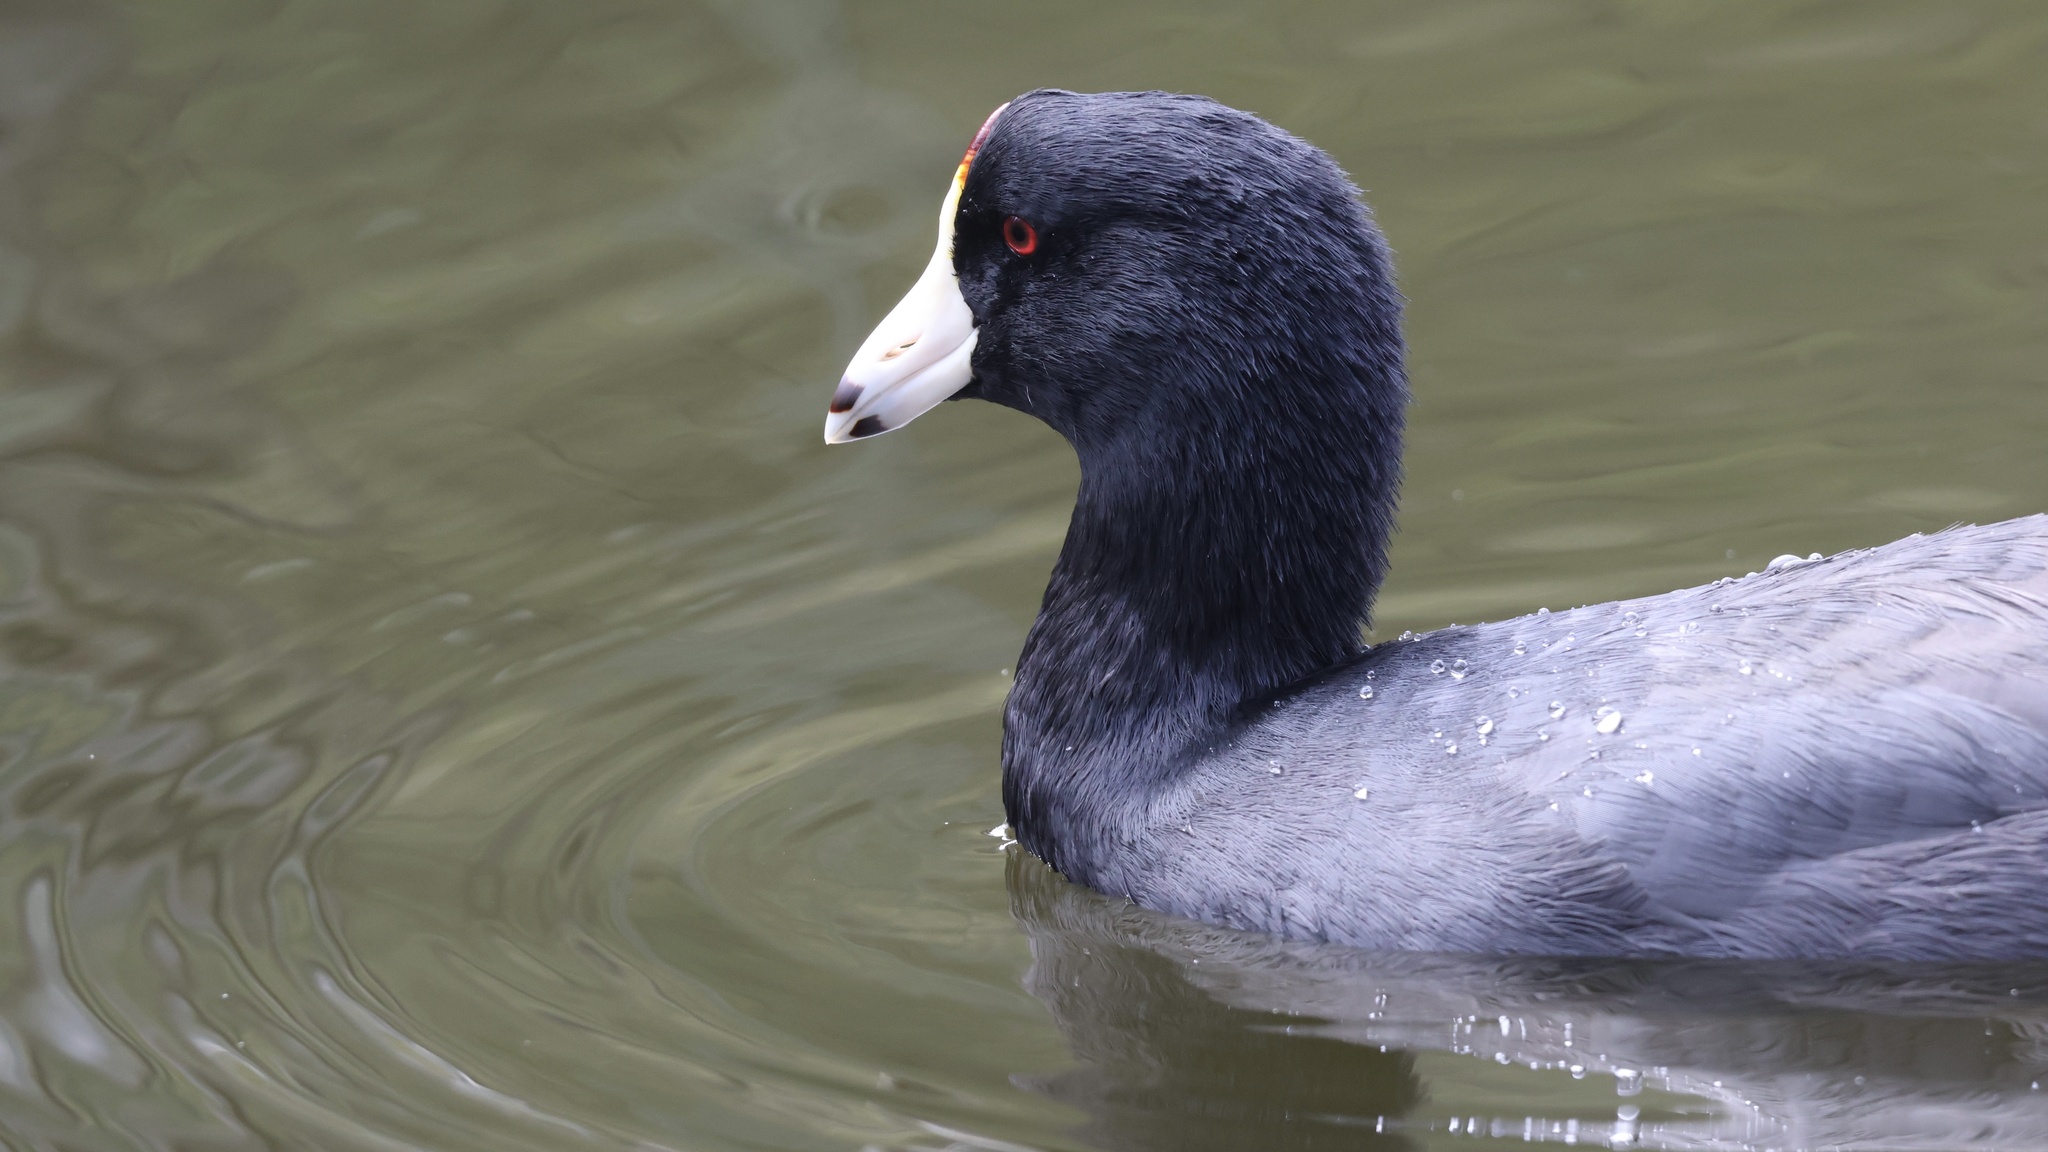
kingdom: Animalia
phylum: Chordata
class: Aves
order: Gruiformes
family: Rallidae
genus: Fulica
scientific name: Fulica americana
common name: American coot
